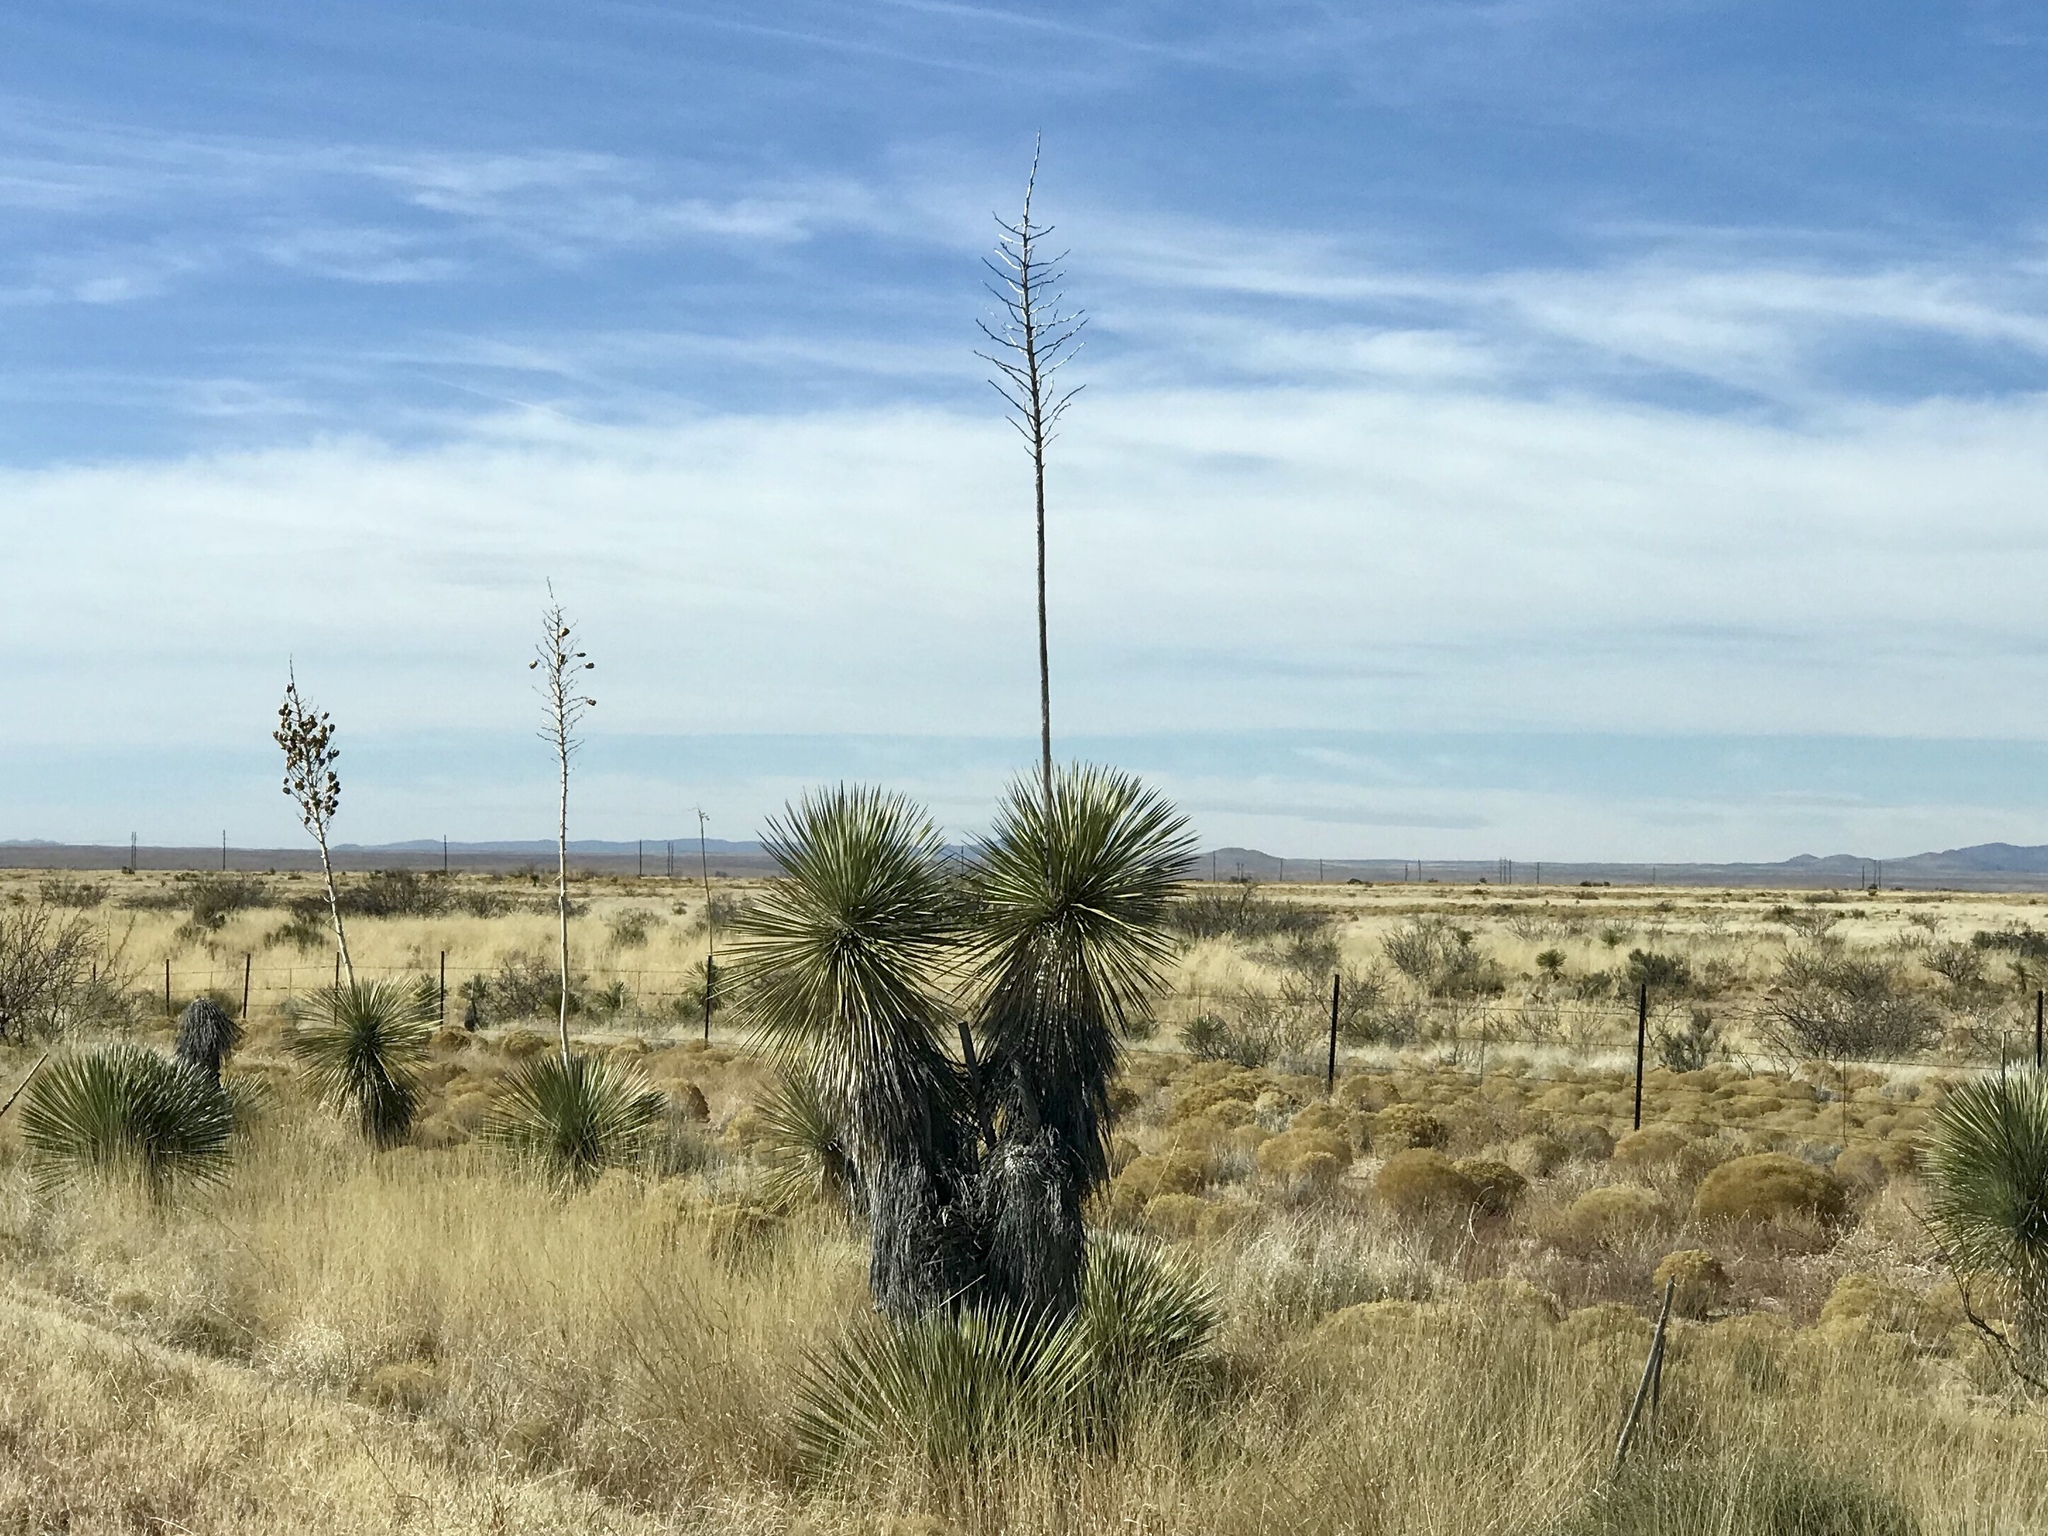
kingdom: Plantae
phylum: Tracheophyta
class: Liliopsida
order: Asparagales
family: Asparagaceae
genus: Yucca
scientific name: Yucca elata
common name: Palmella
